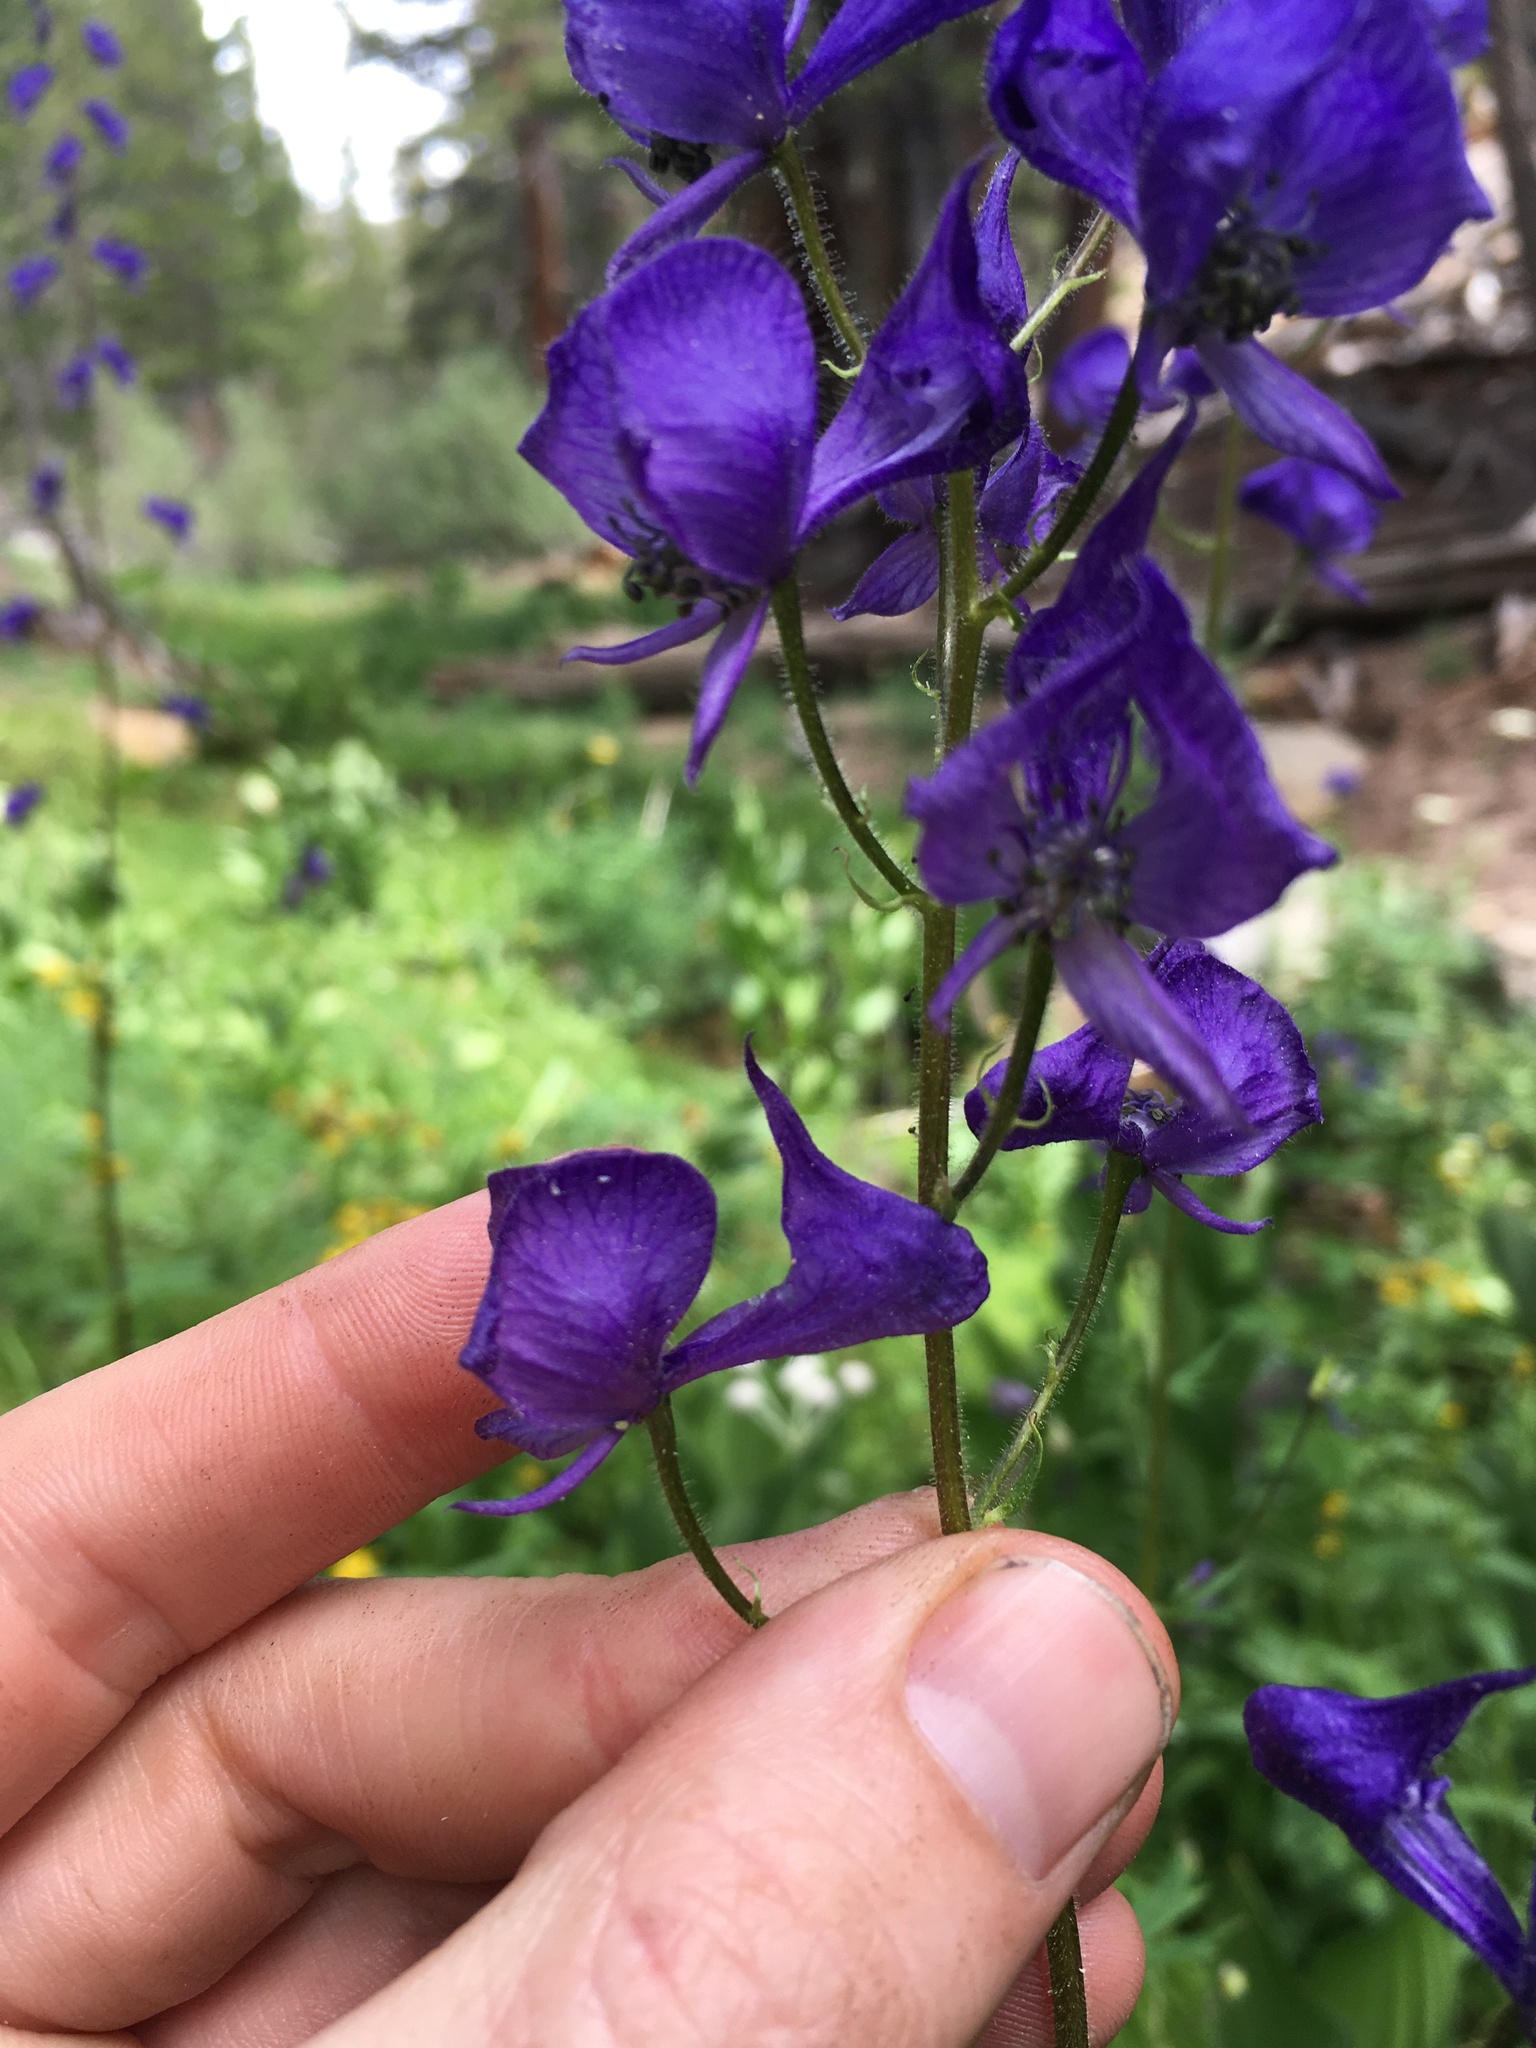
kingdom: Plantae
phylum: Tracheophyta
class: Magnoliopsida
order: Ranunculales
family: Ranunculaceae
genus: Aconitum
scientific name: Aconitum columbianum
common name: Columbia aconite
